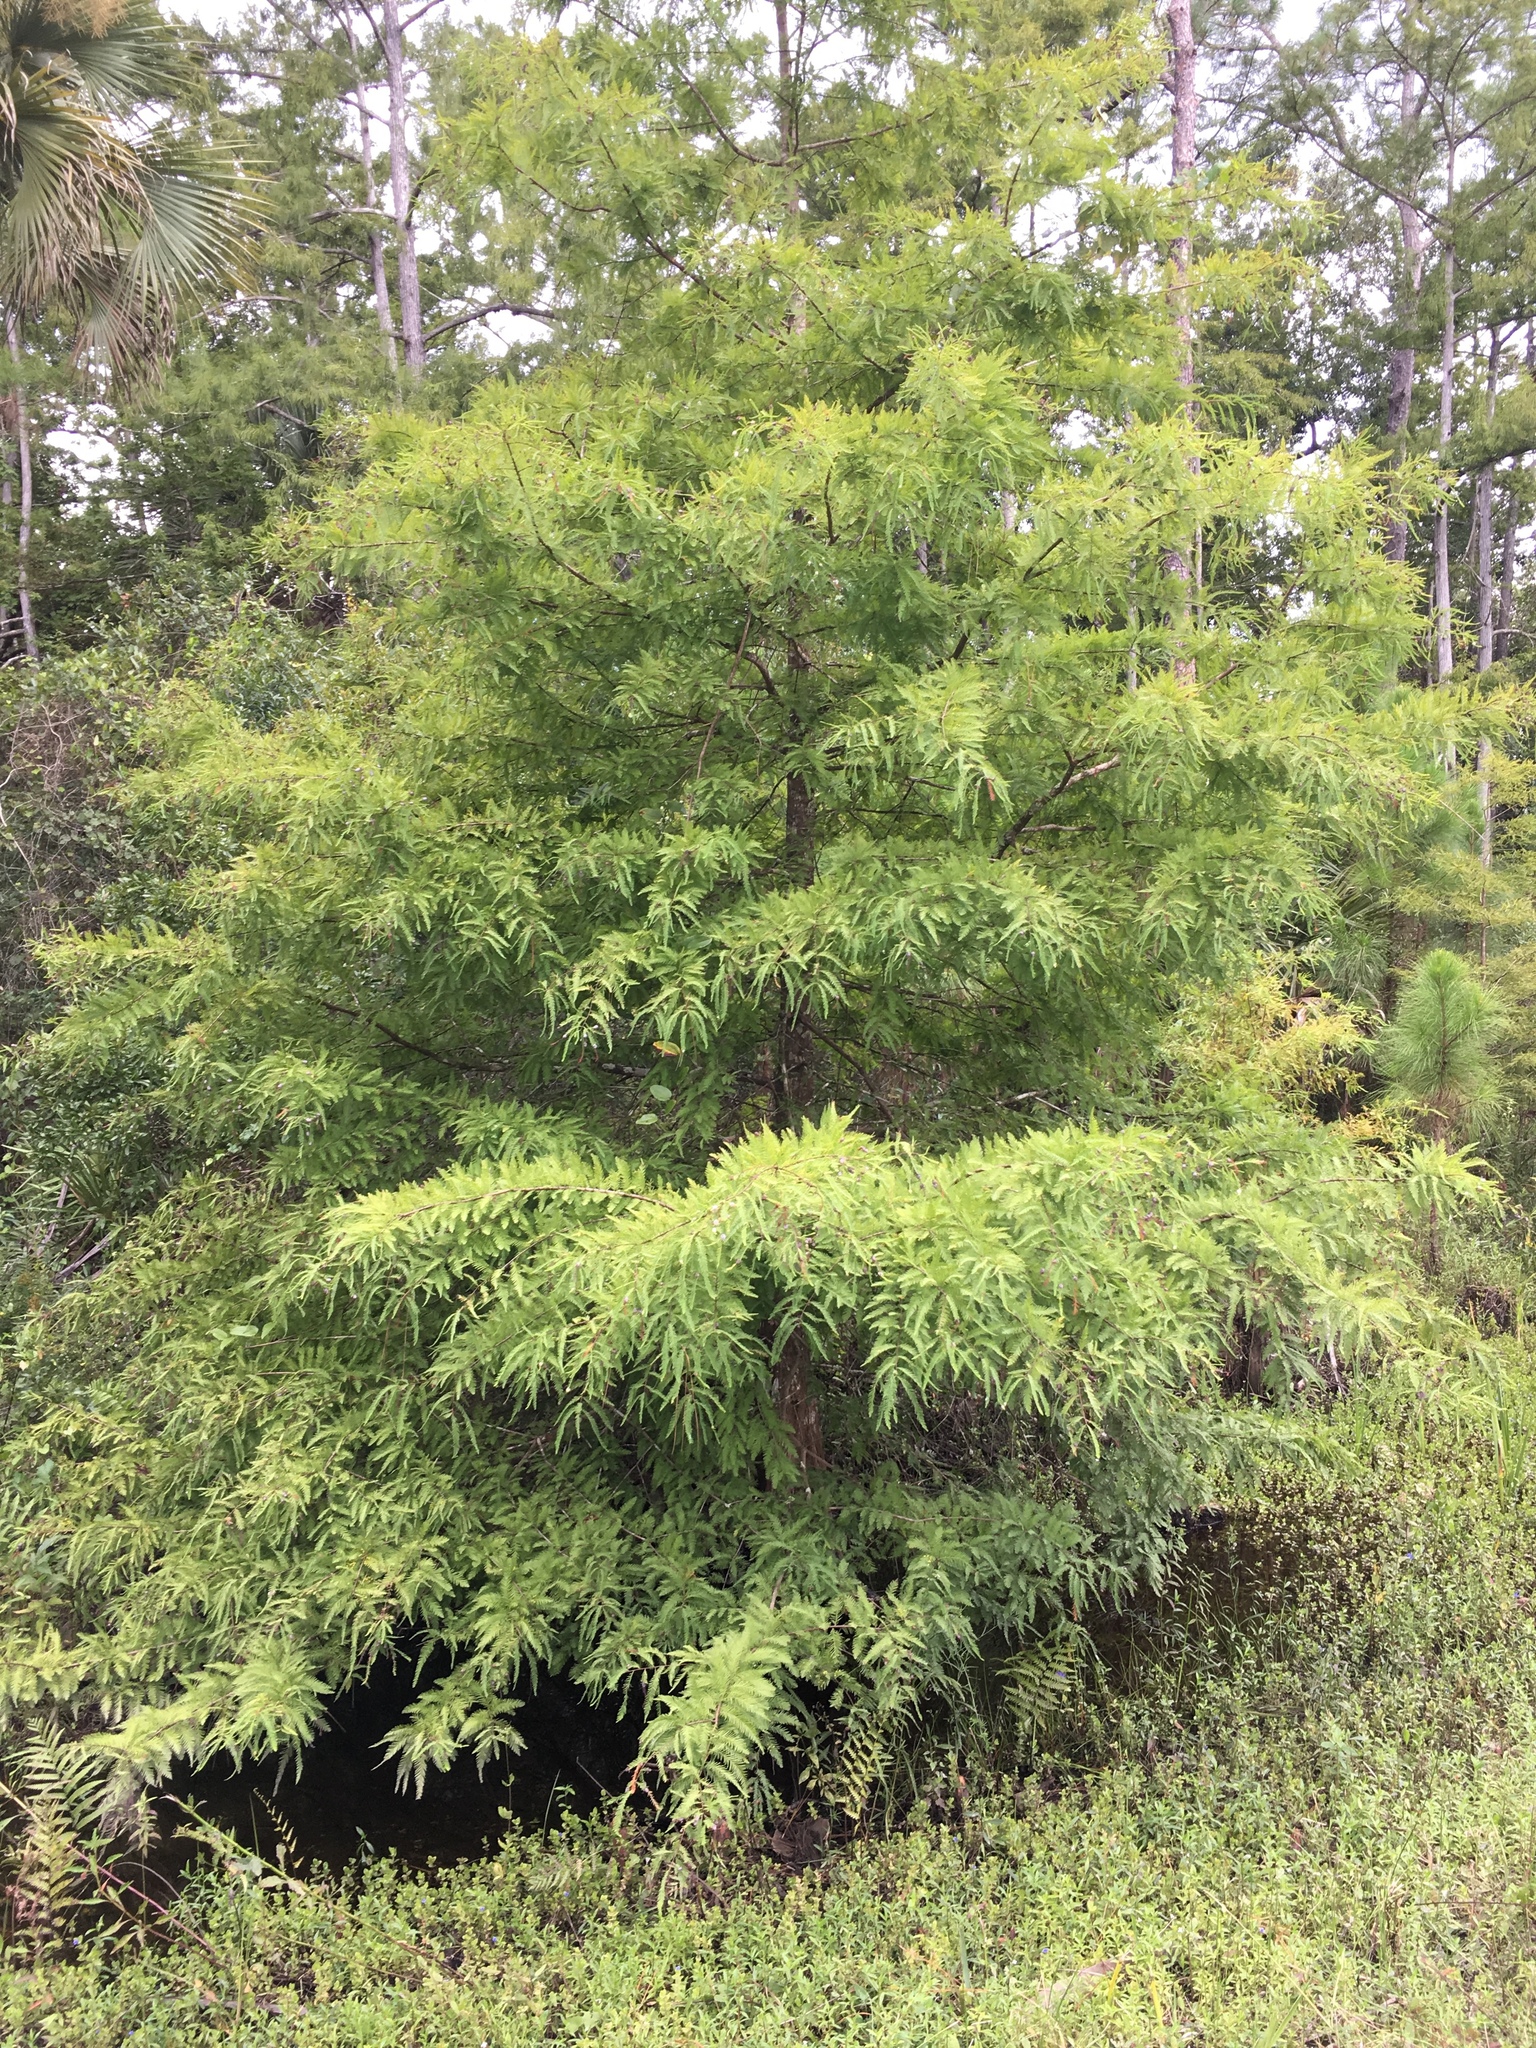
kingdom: Plantae
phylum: Tracheophyta
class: Pinopsida
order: Pinales
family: Cupressaceae
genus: Taxodium
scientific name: Taxodium distichum
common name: Bald cypress
